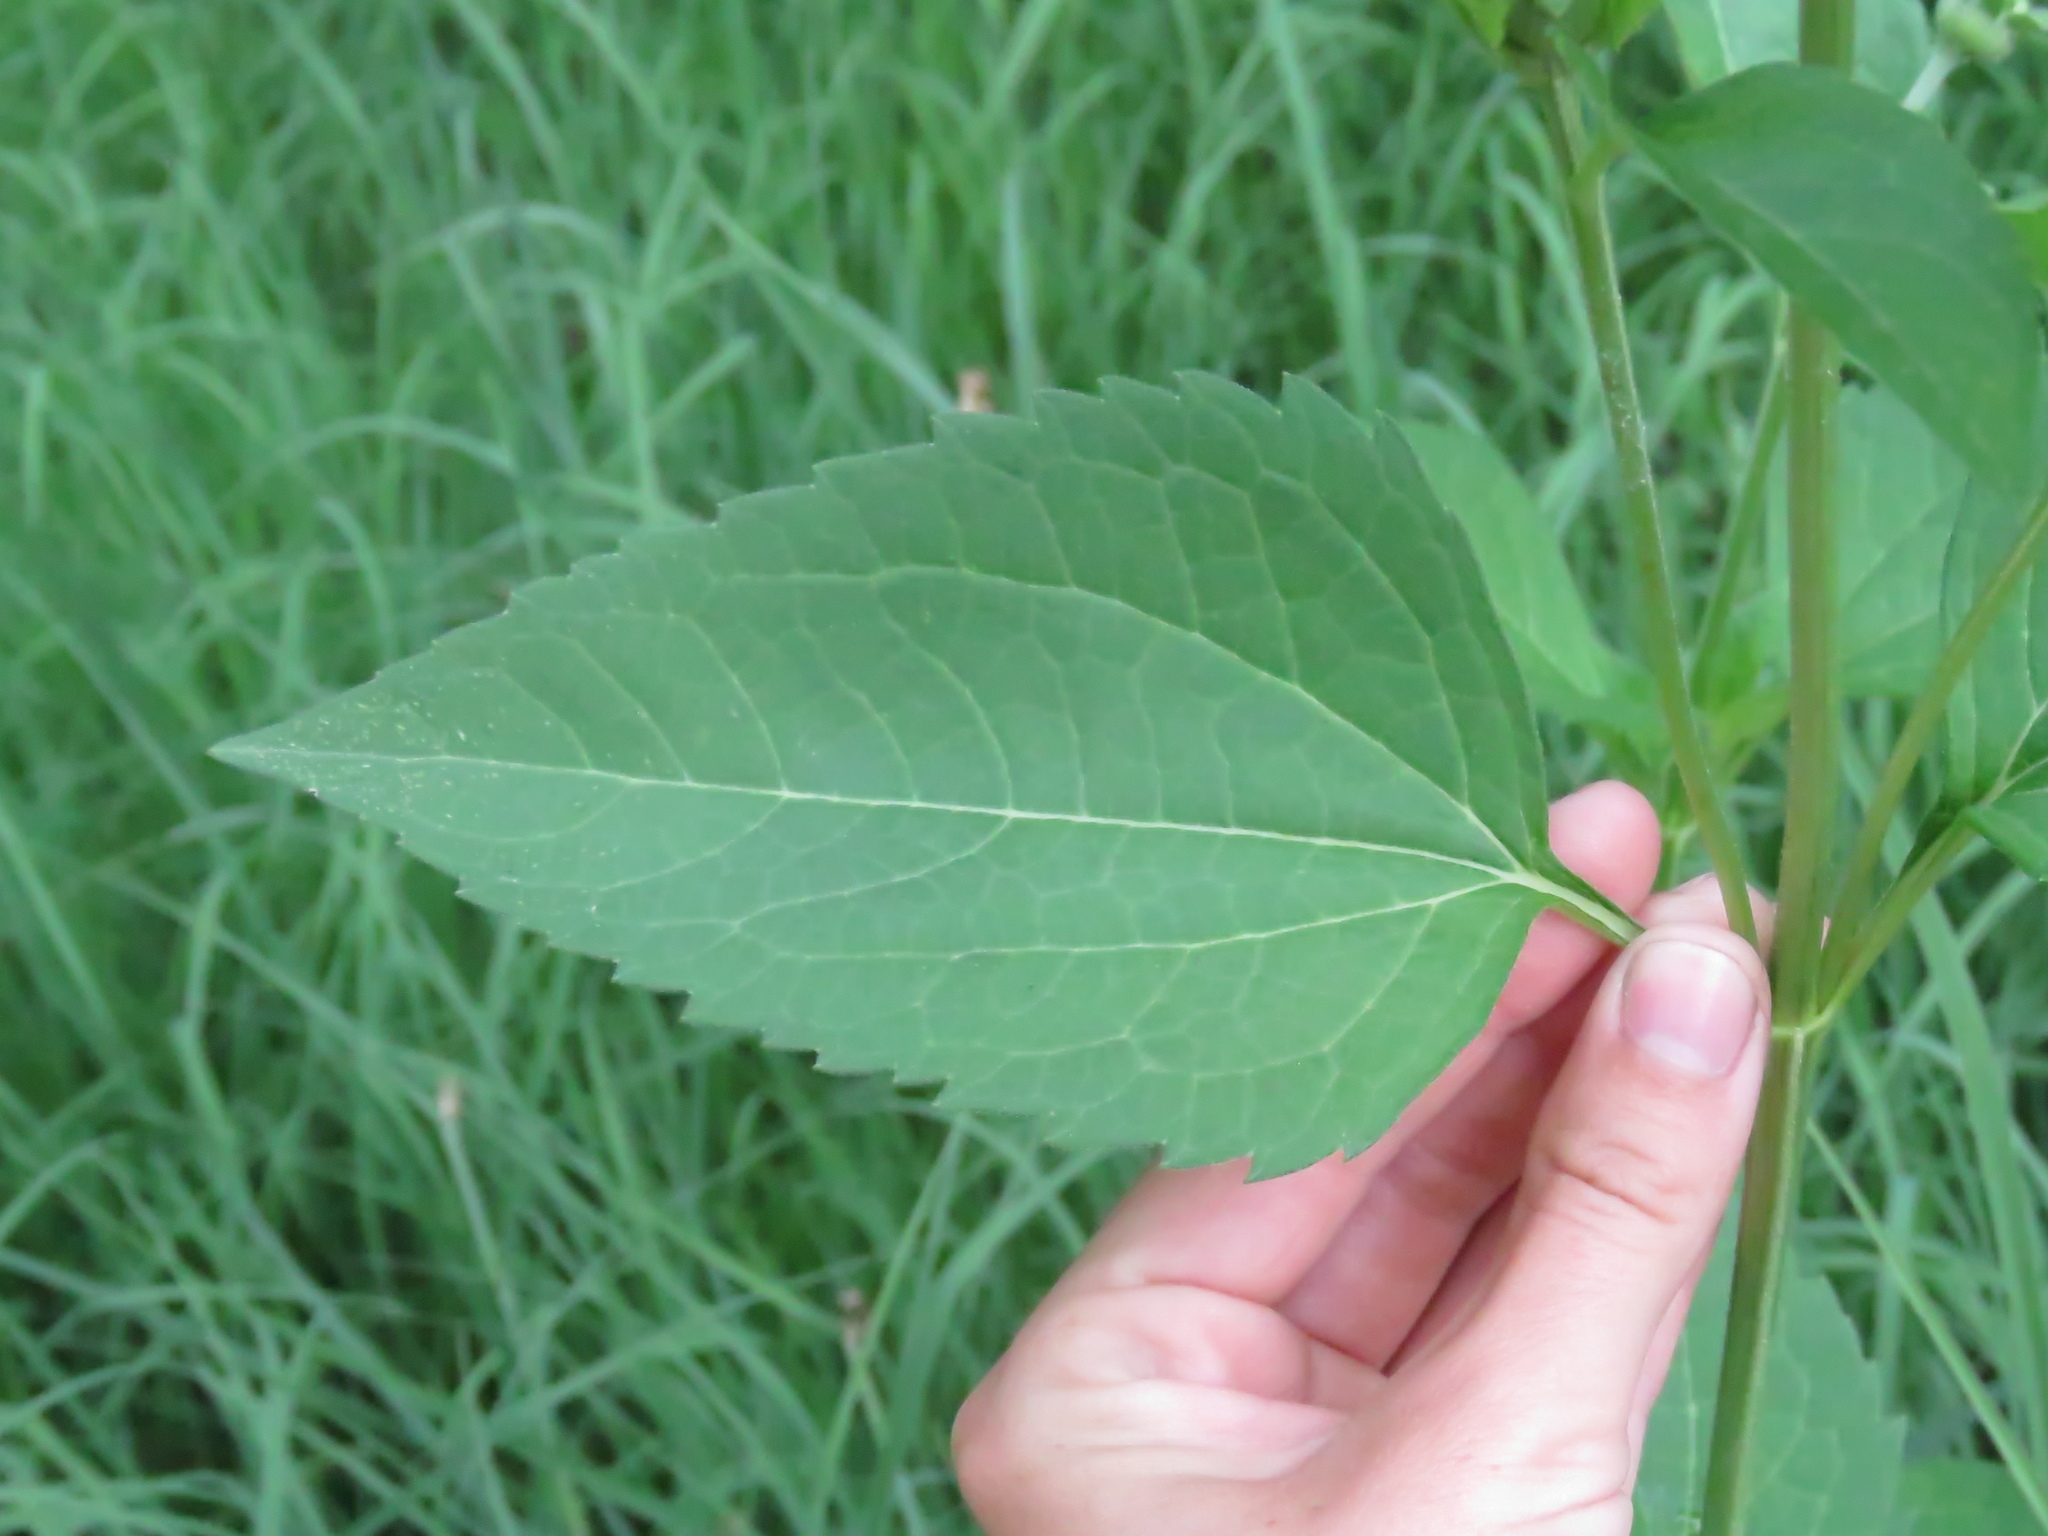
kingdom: Plantae
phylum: Tracheophyta
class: Magnoliopsida
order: Asterales
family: Asteraceae
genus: Heliopsis
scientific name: Heliopsis helianthoides
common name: False sunflower
